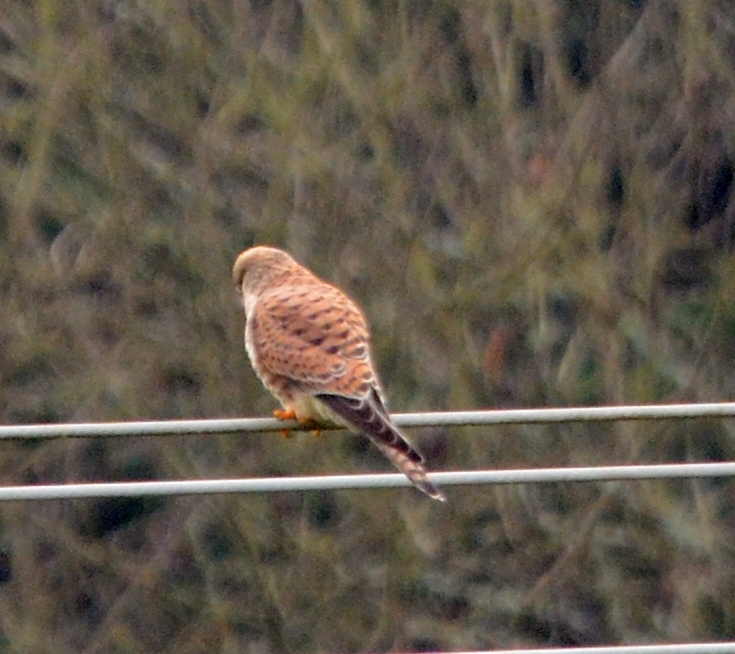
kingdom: Animalia
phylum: Chordata
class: Aves
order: Falconiformes
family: Falconidae
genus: Falco
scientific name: Falco tinnunculus
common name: Common kestrel
